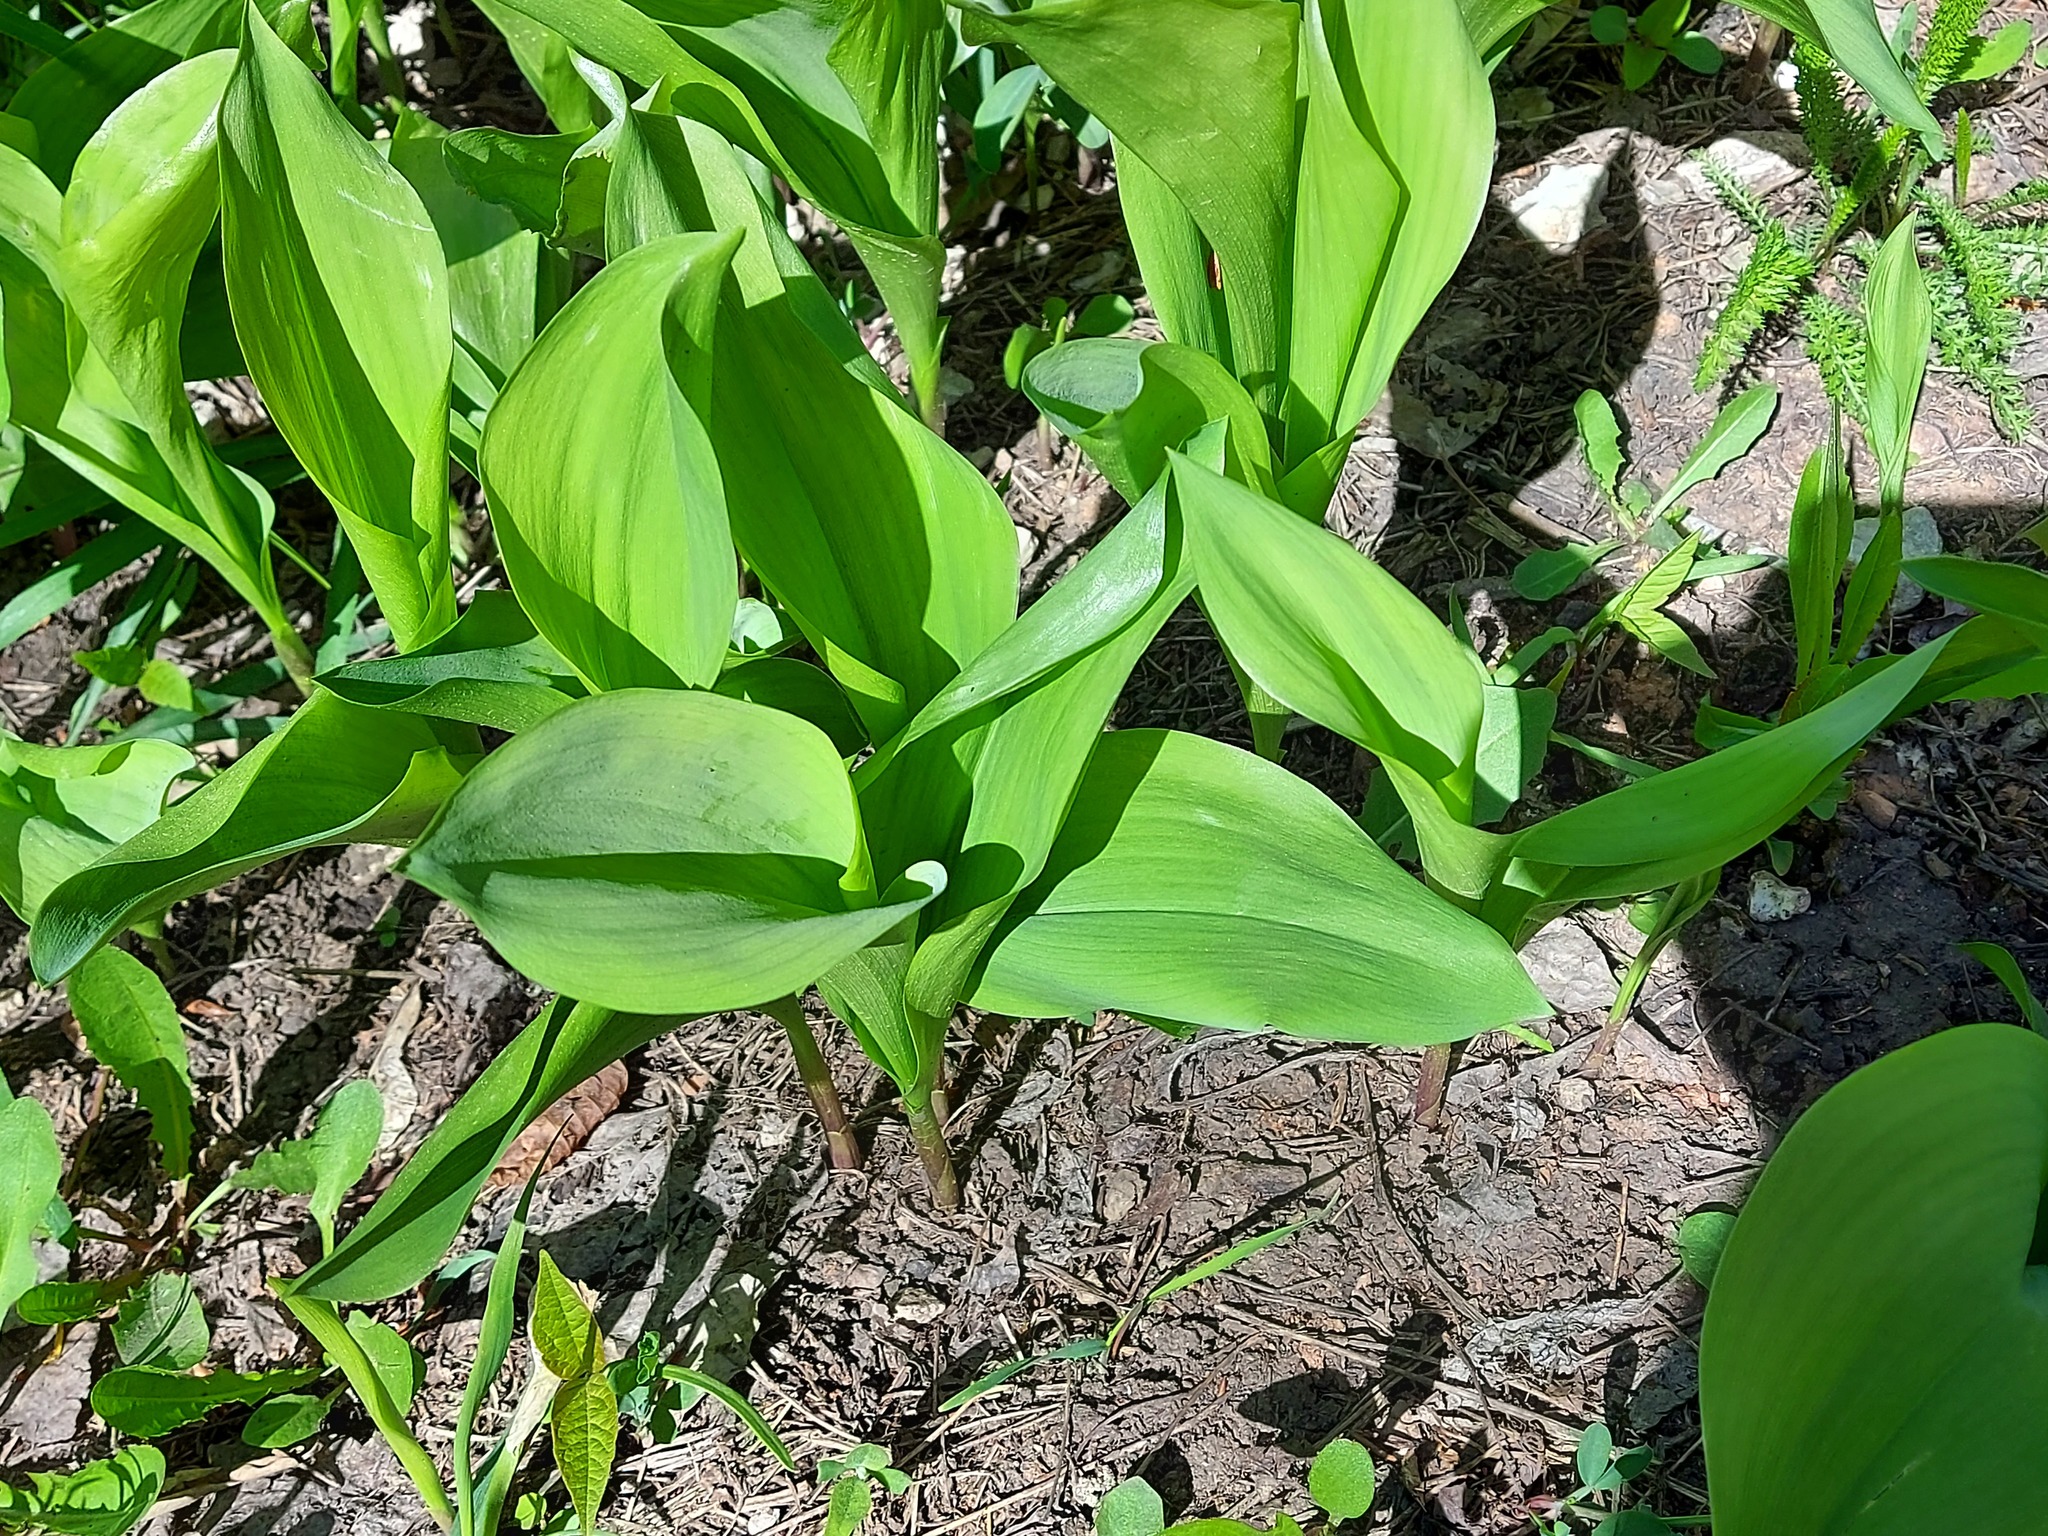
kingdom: Plantae
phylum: Tracheophyta
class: Liliopsida
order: Asparagales
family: Asparagaceae
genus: Convallaria
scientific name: Convallaria majalis
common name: Lily-of-the-valley
